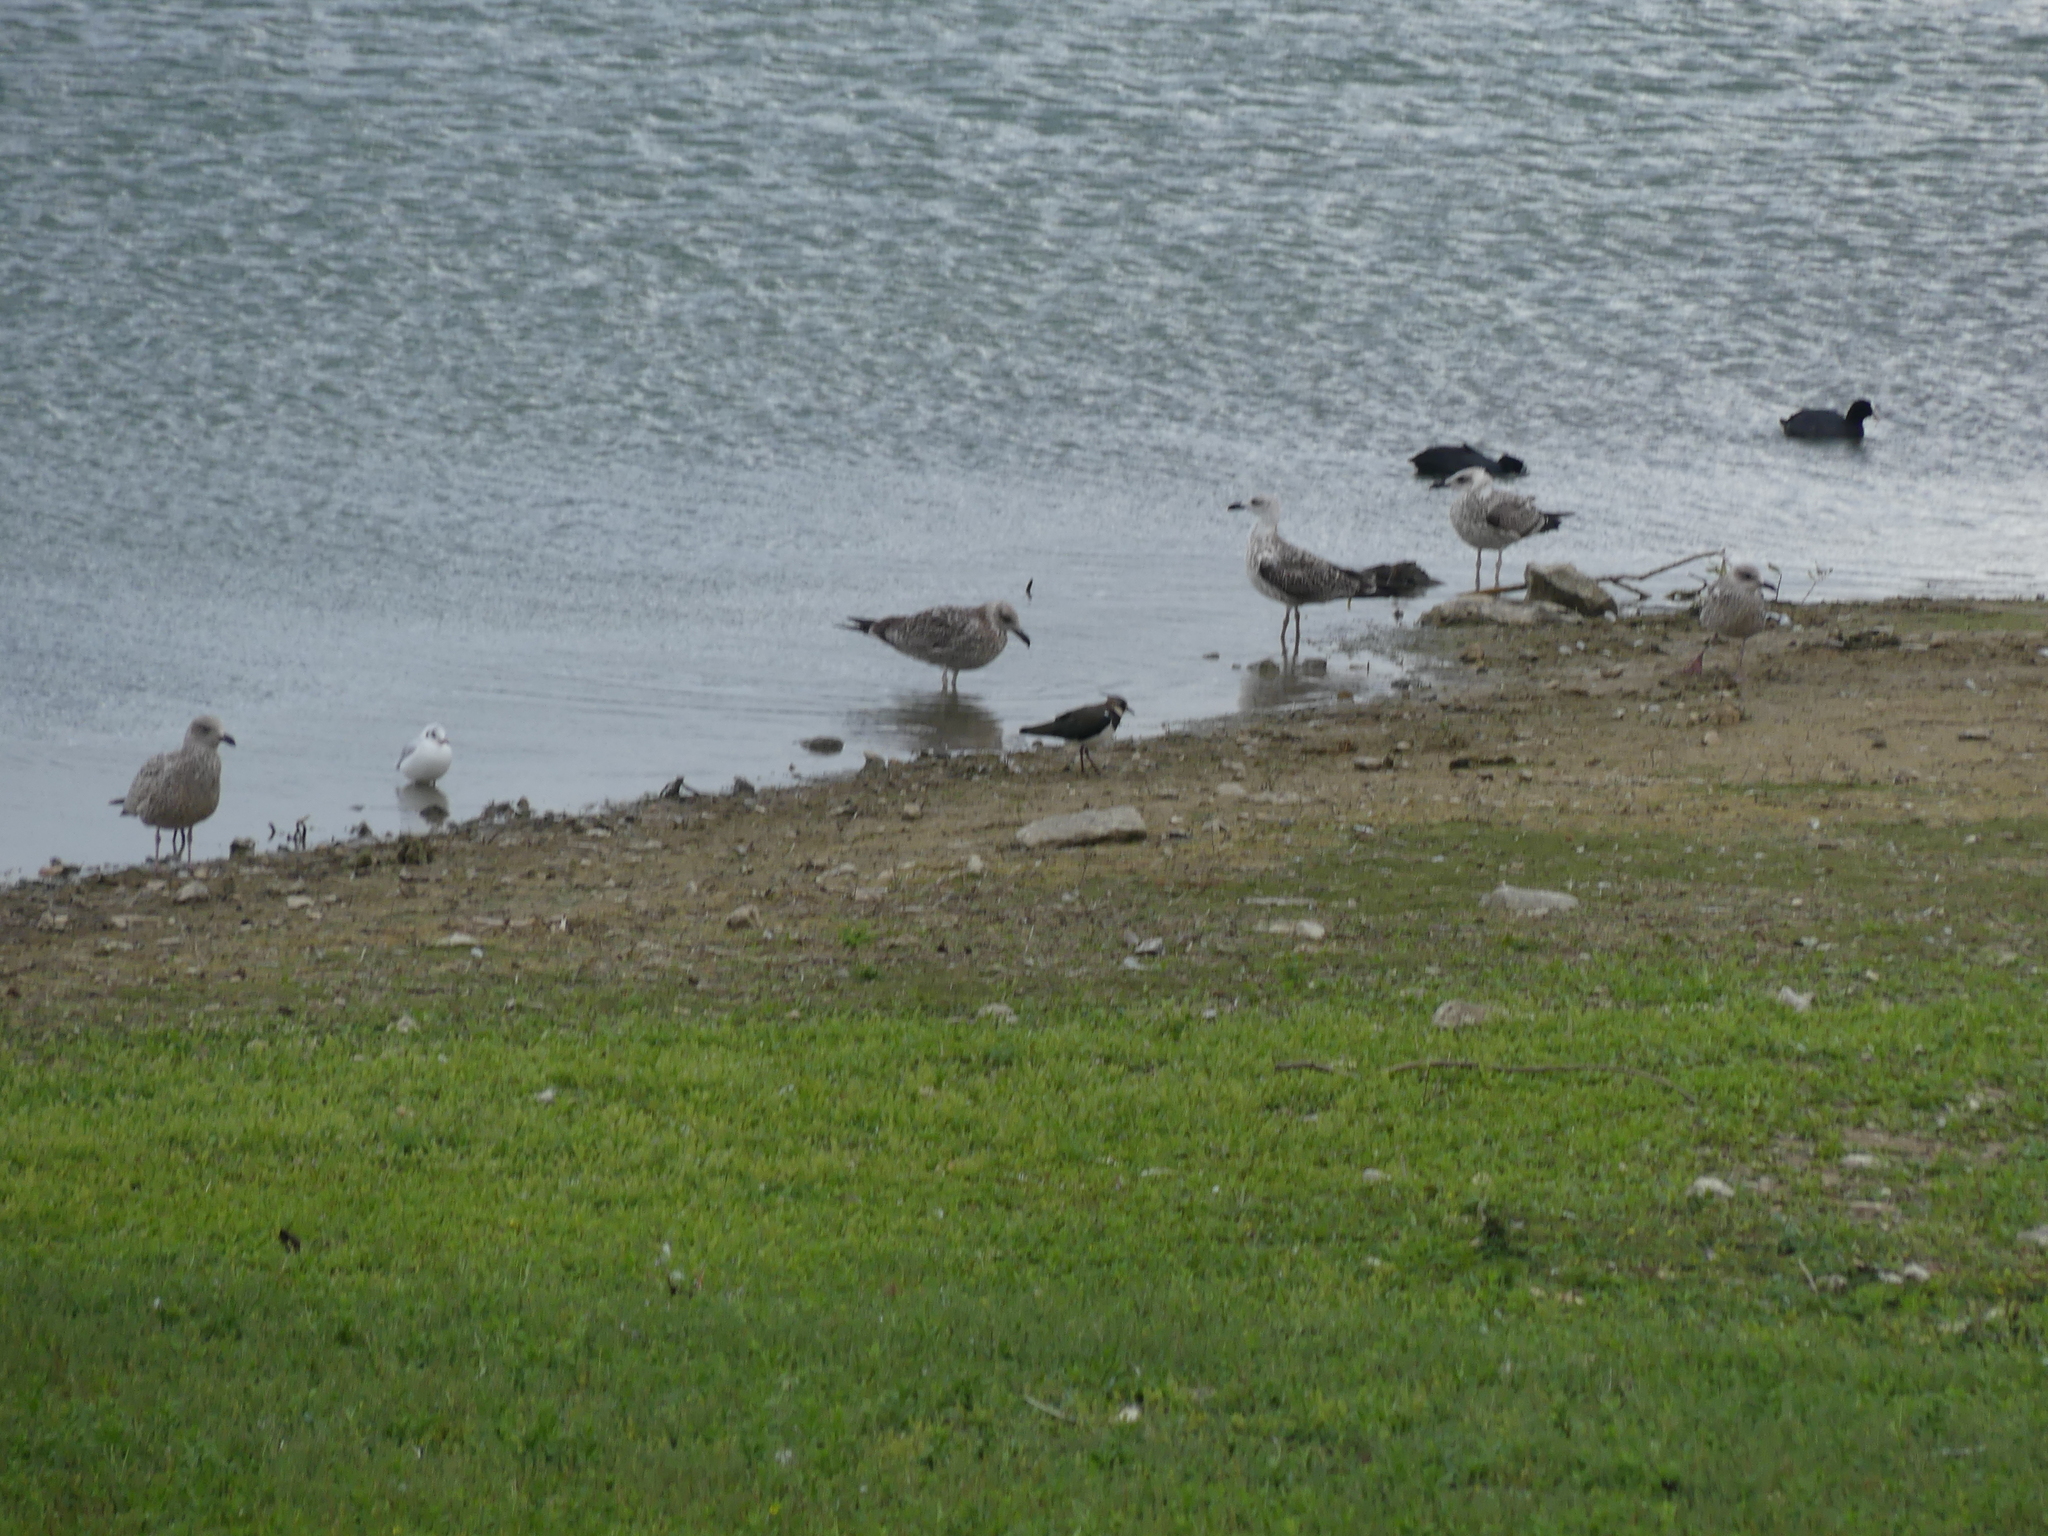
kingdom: Animalia
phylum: Chordata
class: Aves
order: Charadriiformes
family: Charadriidae
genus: Vanellus
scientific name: Vanellus vanellus
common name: Northern lapwing
